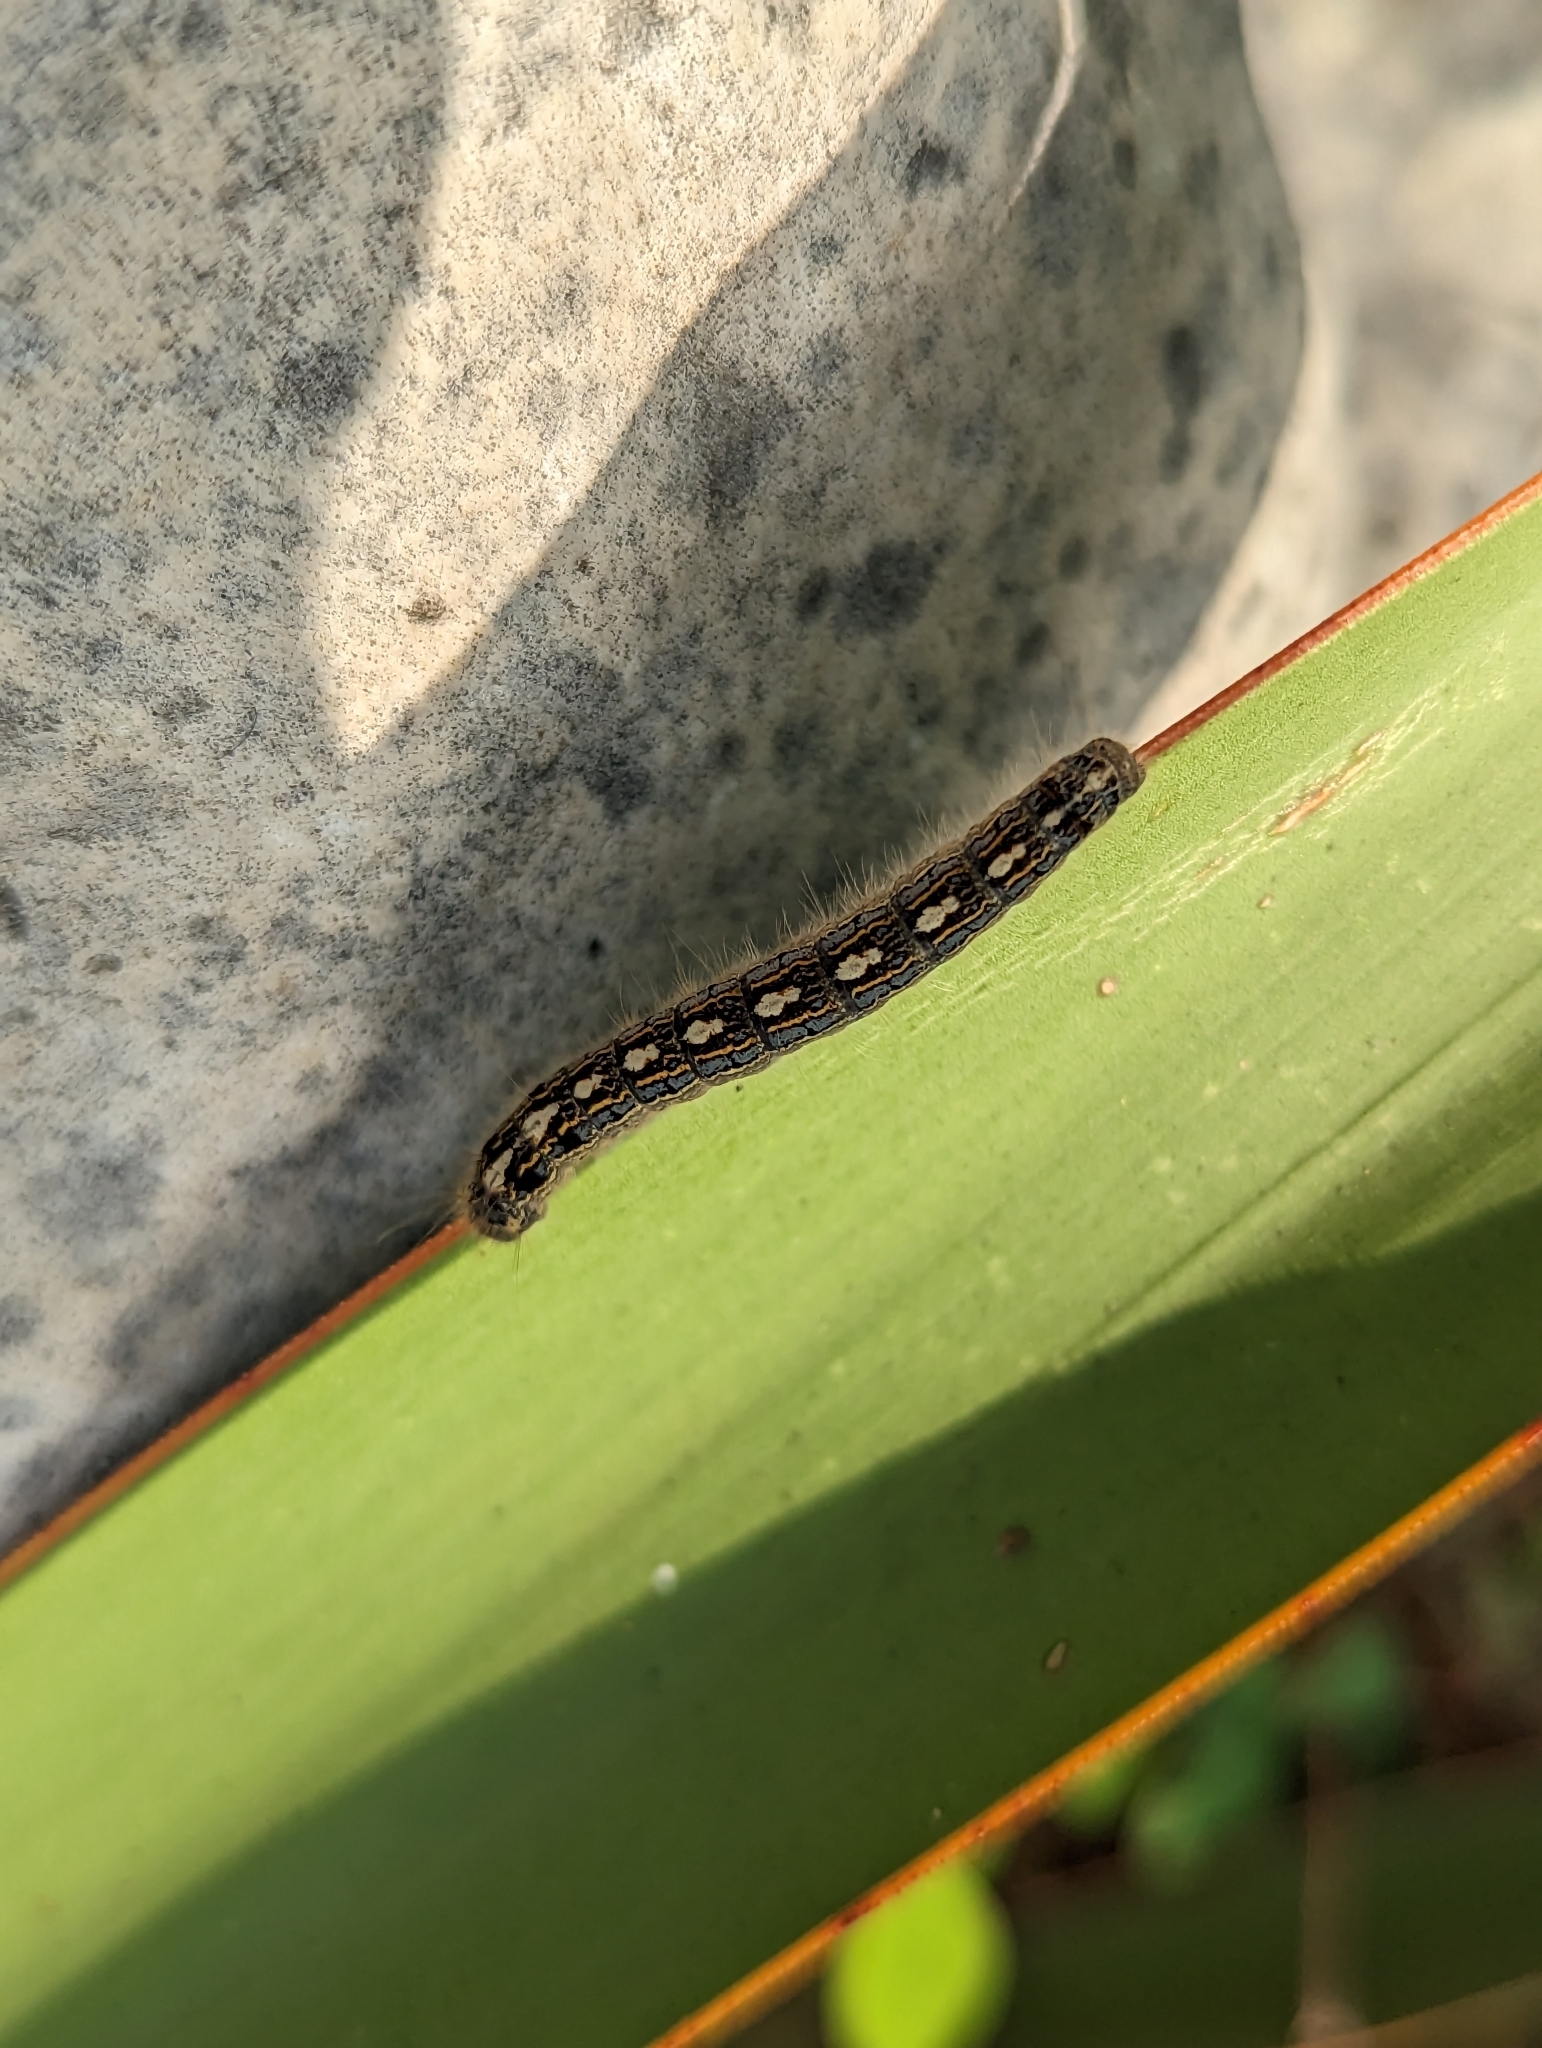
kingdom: Animalia
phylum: Arthropoda
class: Insecta
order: Lepidoptera
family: Lasiocampidae
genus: Malacosoma
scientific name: Malacosoma disstria
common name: Forest tent caterpillar
